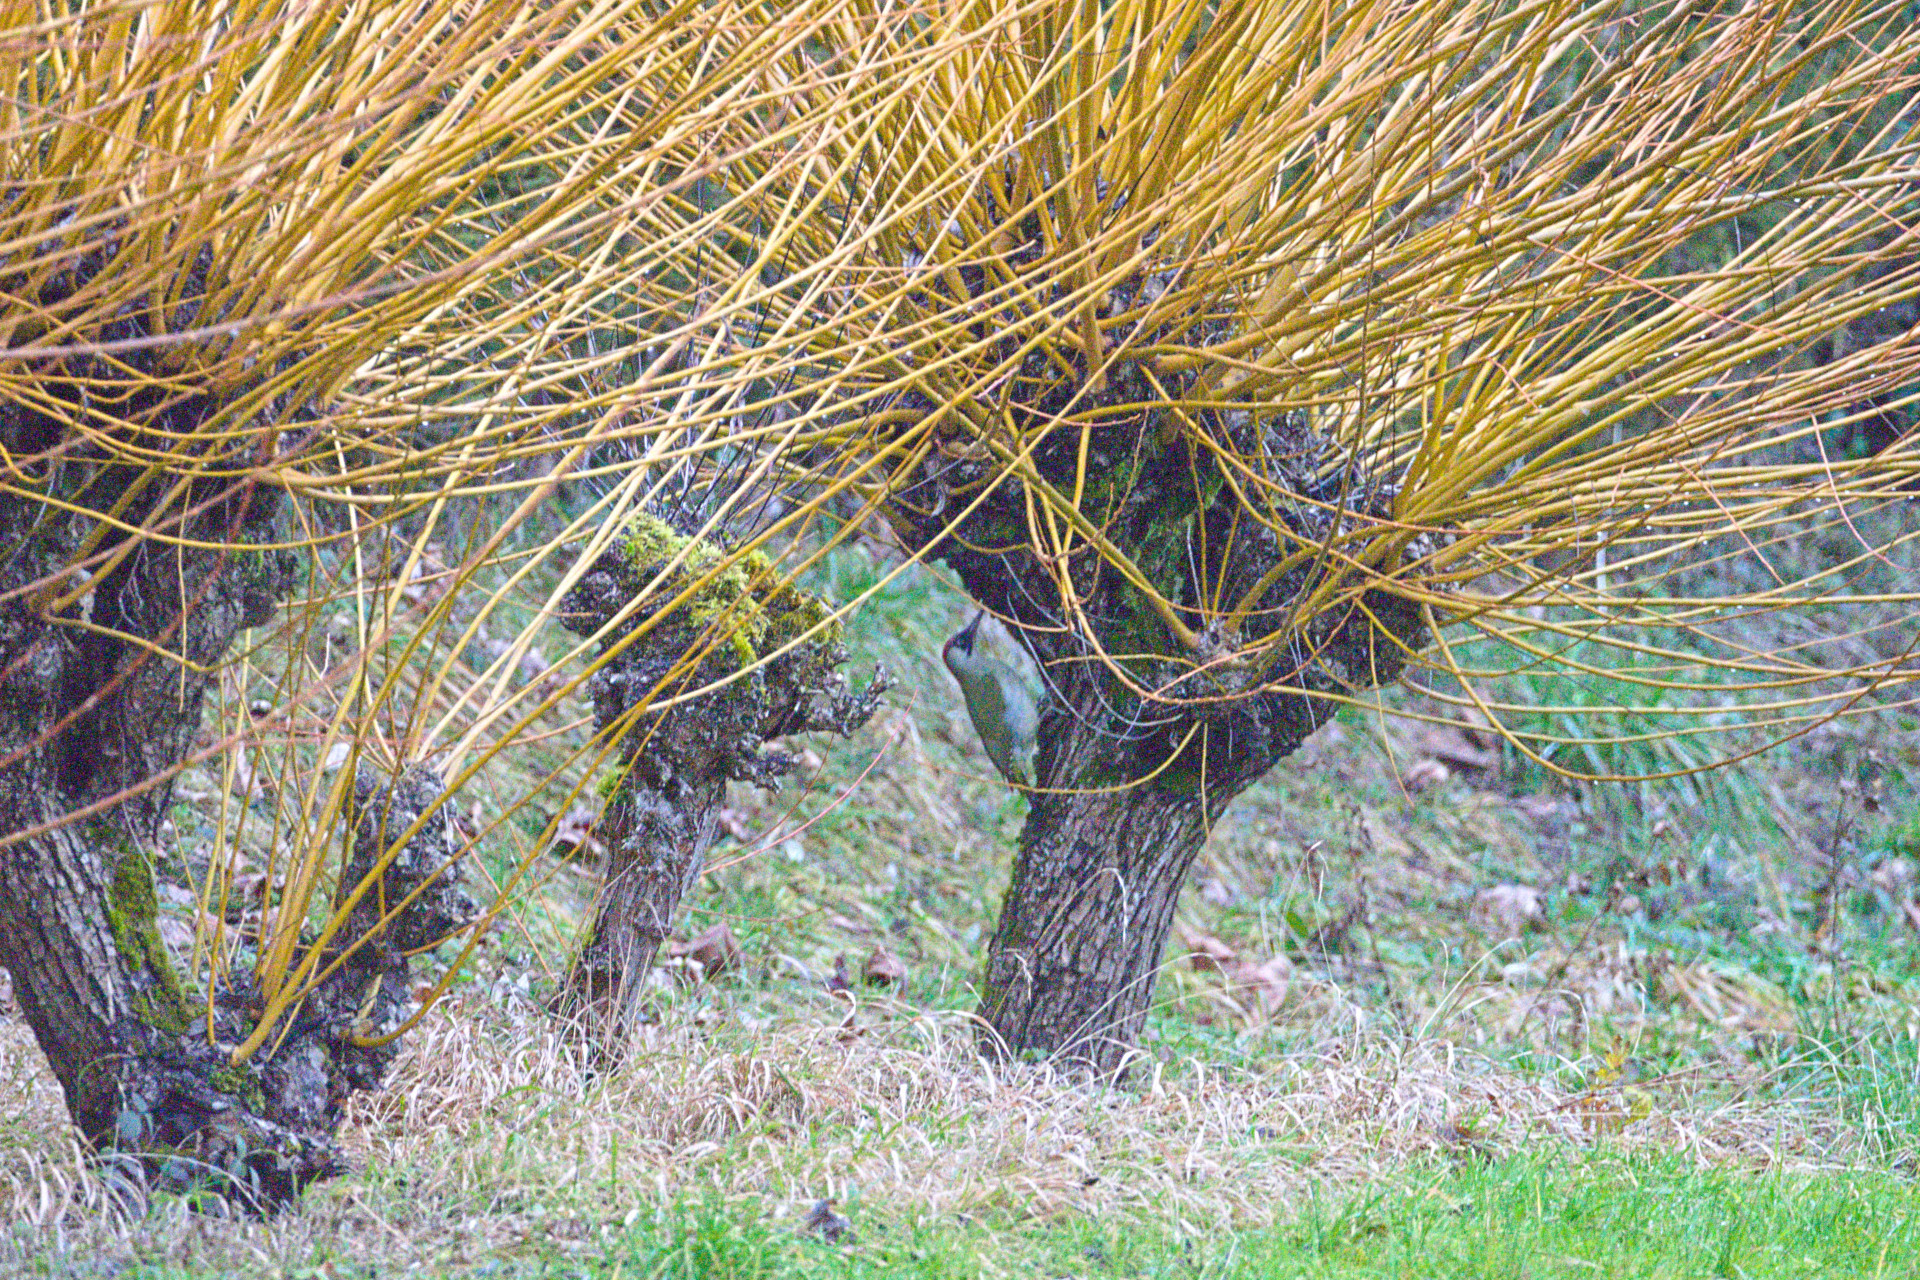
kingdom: Animalia
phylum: Chordata
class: Aves
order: Piciformes
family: Picidae
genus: Picus
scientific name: Picus viridis
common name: European green woodpecker
